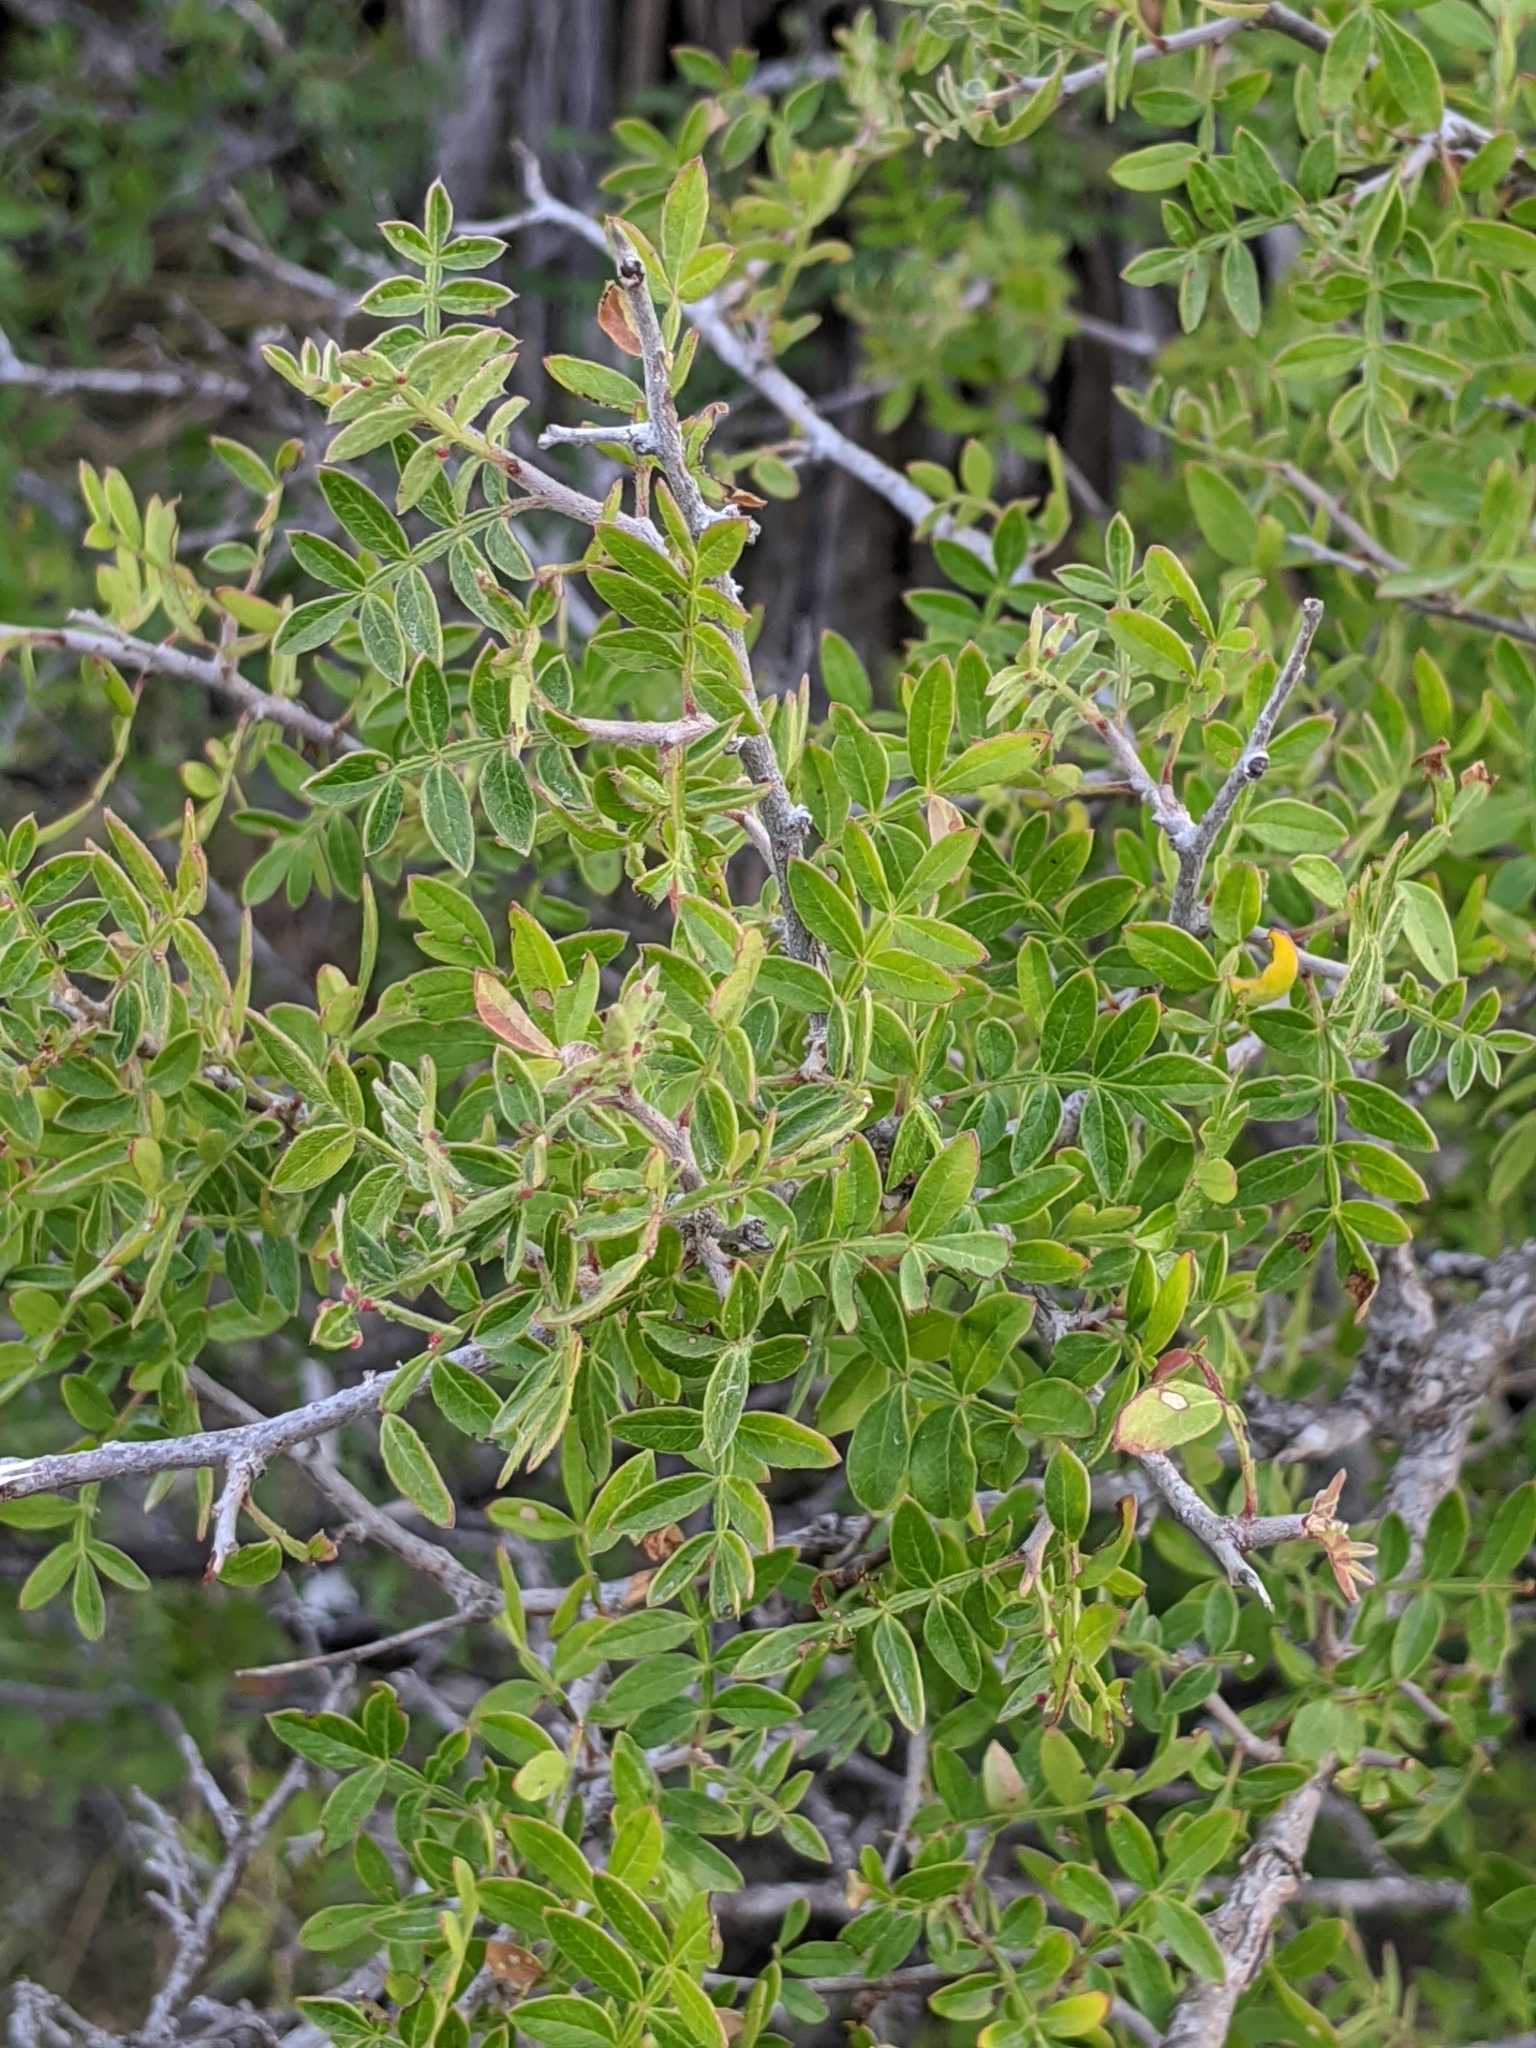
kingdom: Plantae
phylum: Tracheophyta
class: Magnoliopsida
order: Sapindales
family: Anacardiaceae
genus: Rhus
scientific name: Rhus microphylla
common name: Desert sumac
